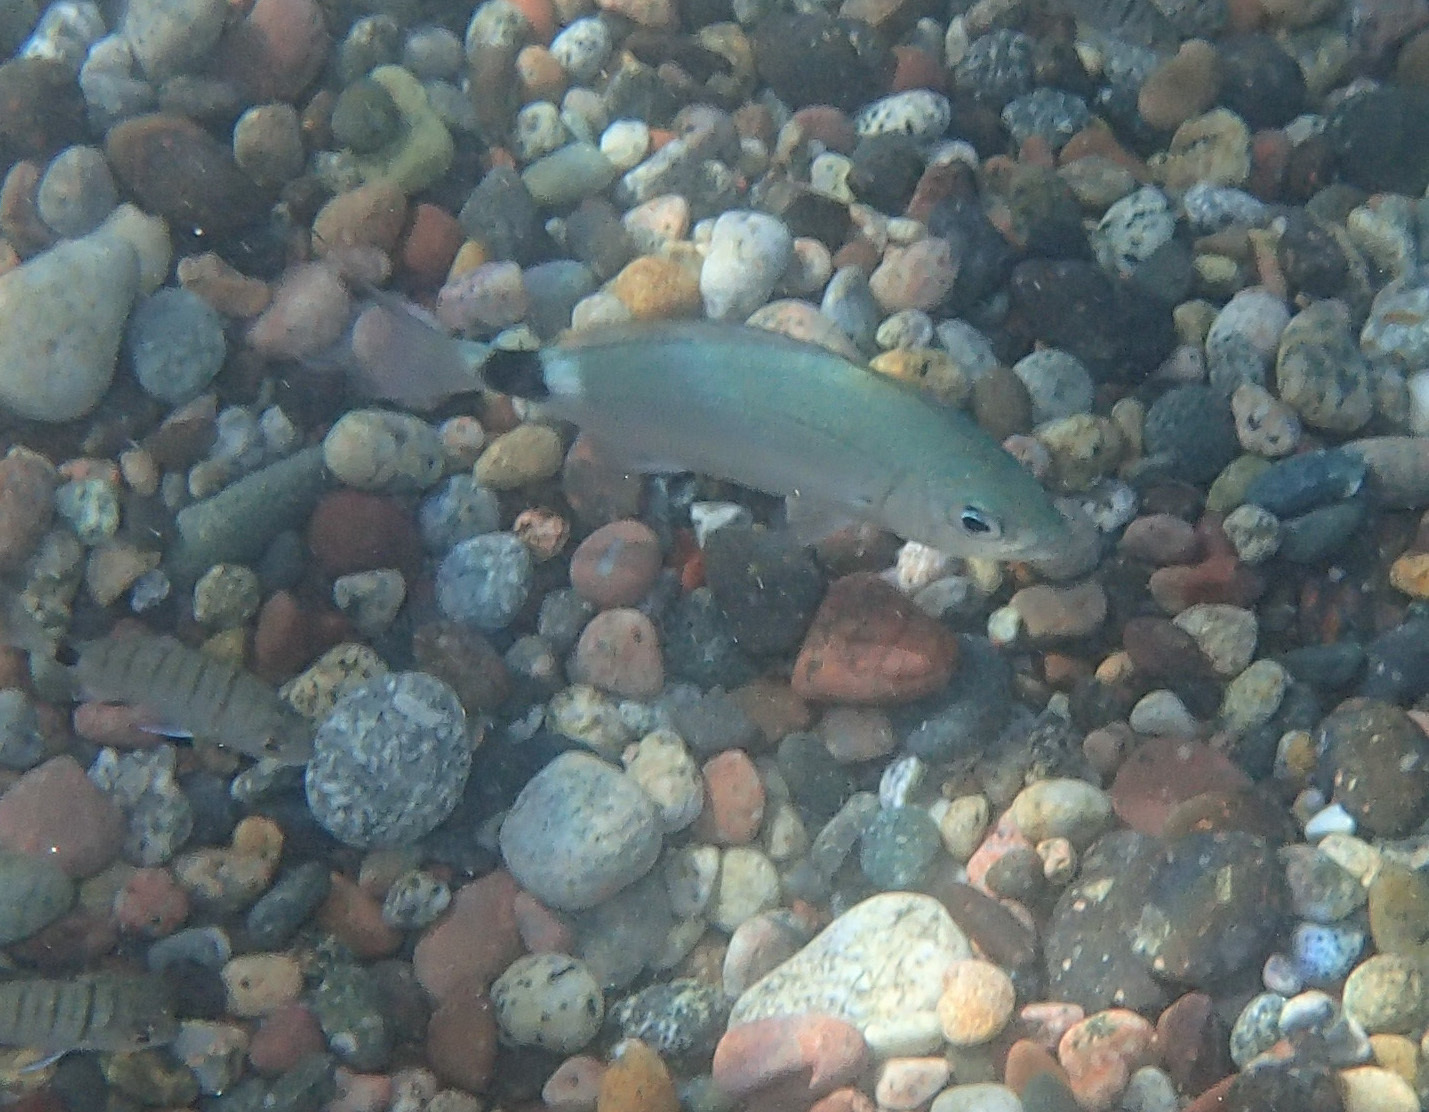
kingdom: Animalia
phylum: Chordata
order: Perciformes
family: Sparidae
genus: Oblada
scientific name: Oblada melanura
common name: Saddled seabream
